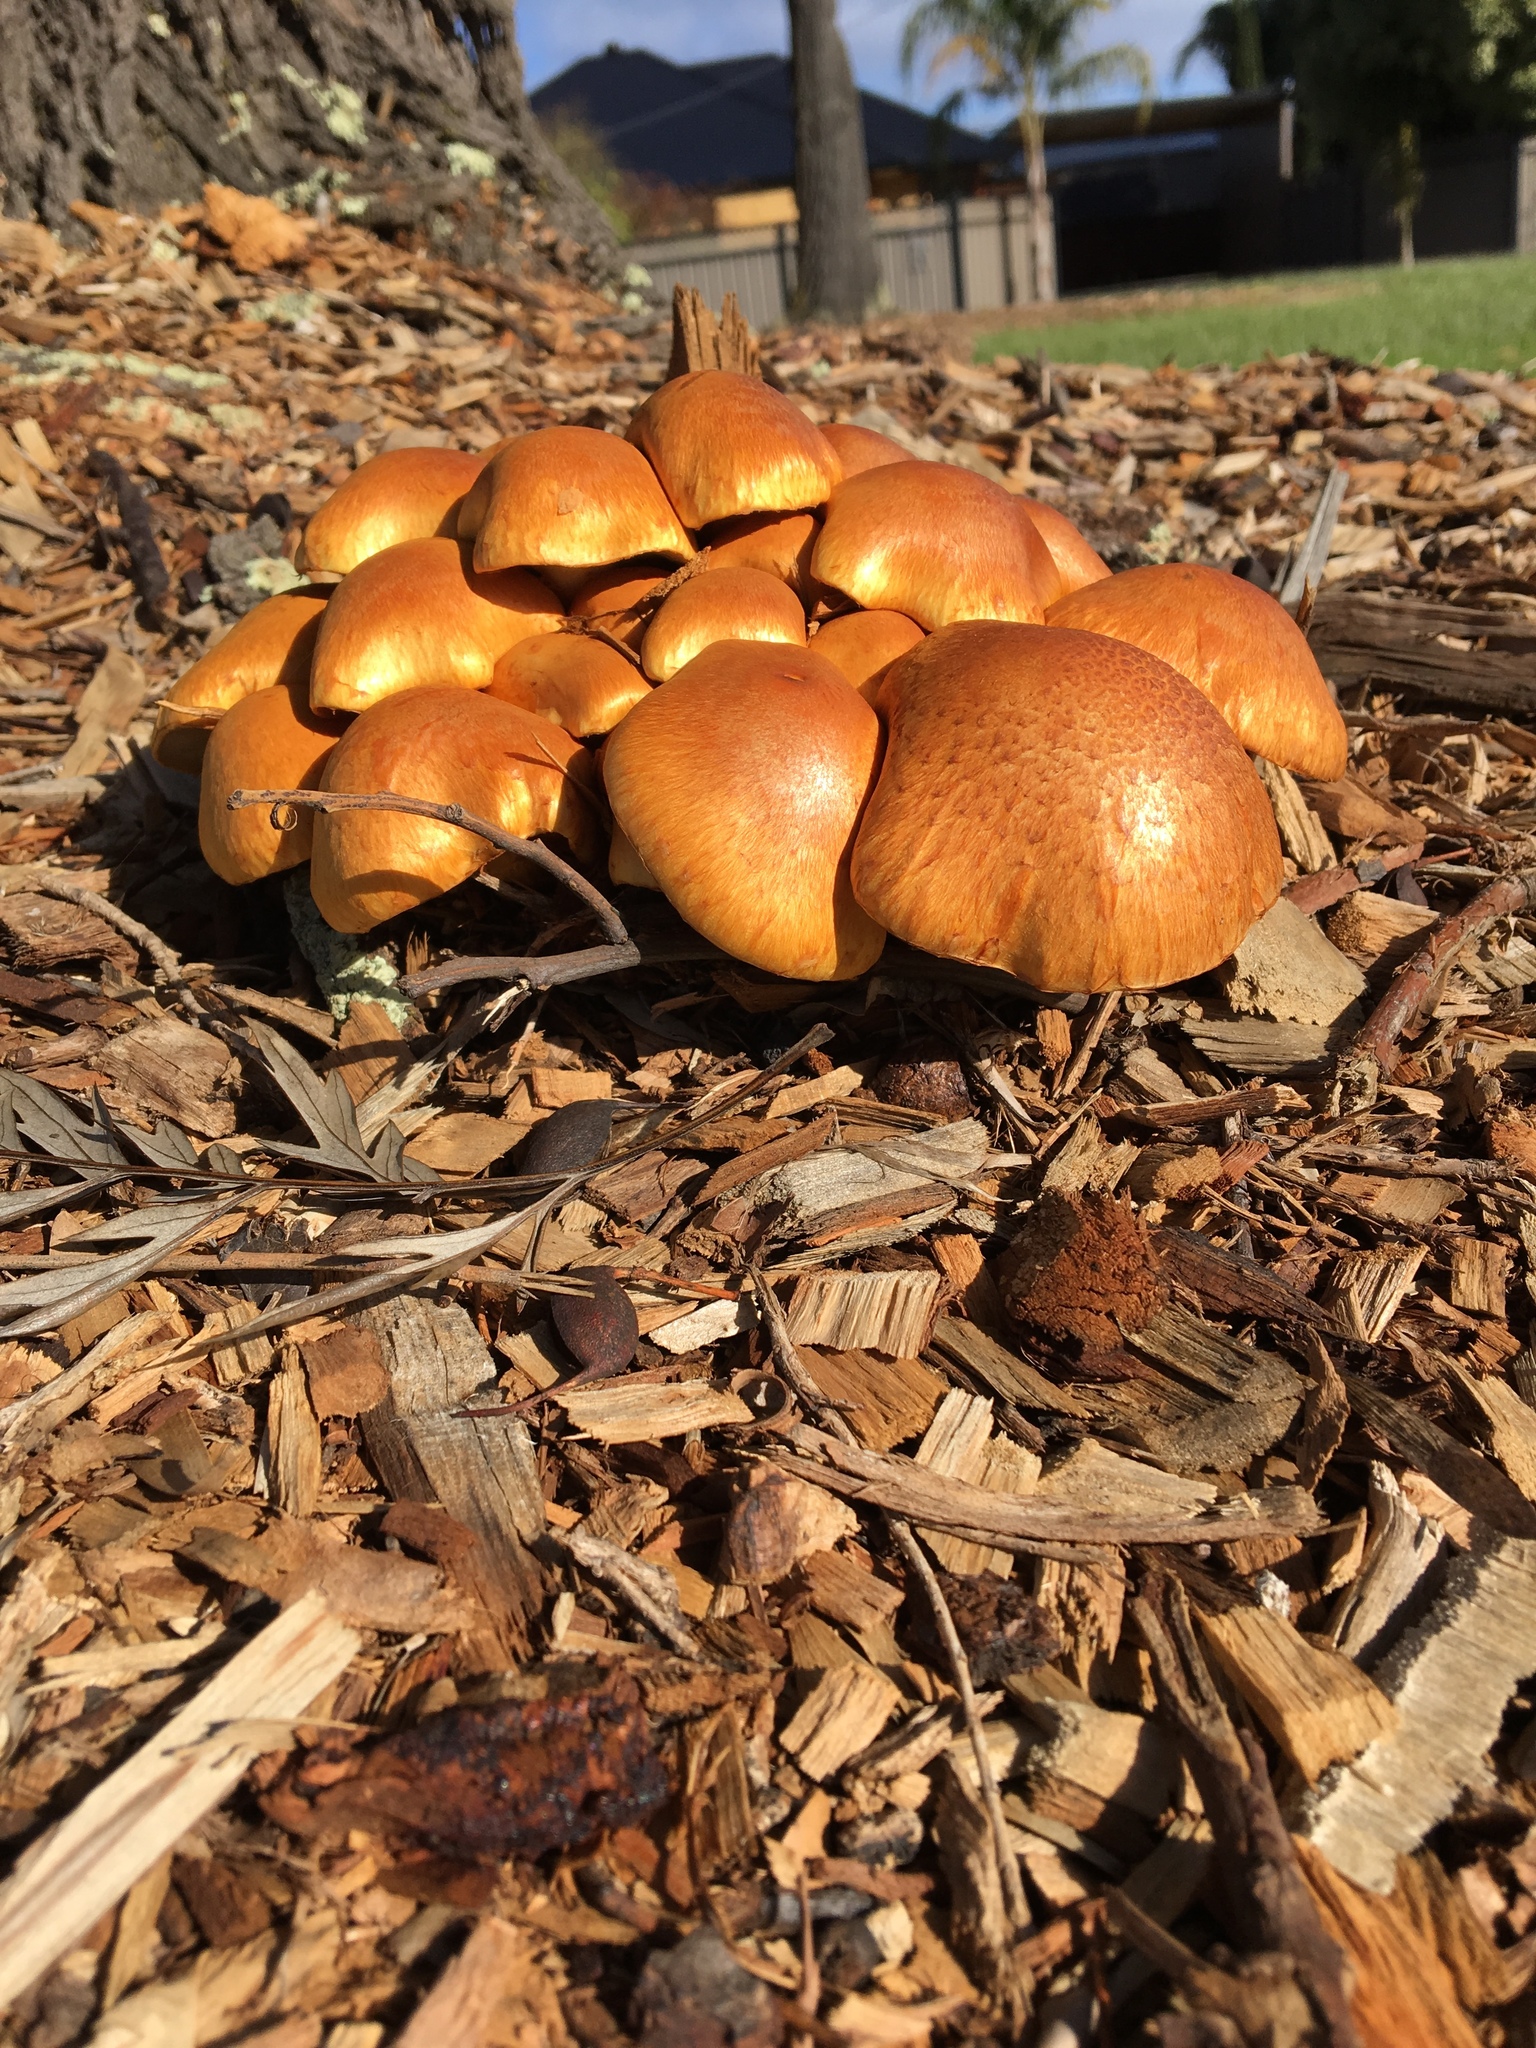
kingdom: Fungi
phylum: Basidiomycota
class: Agaricomycetes
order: Agaricales
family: Hymenogastraceae
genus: Gymnopilus
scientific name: Gymnopilus junonius
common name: Spectacular rustgill
